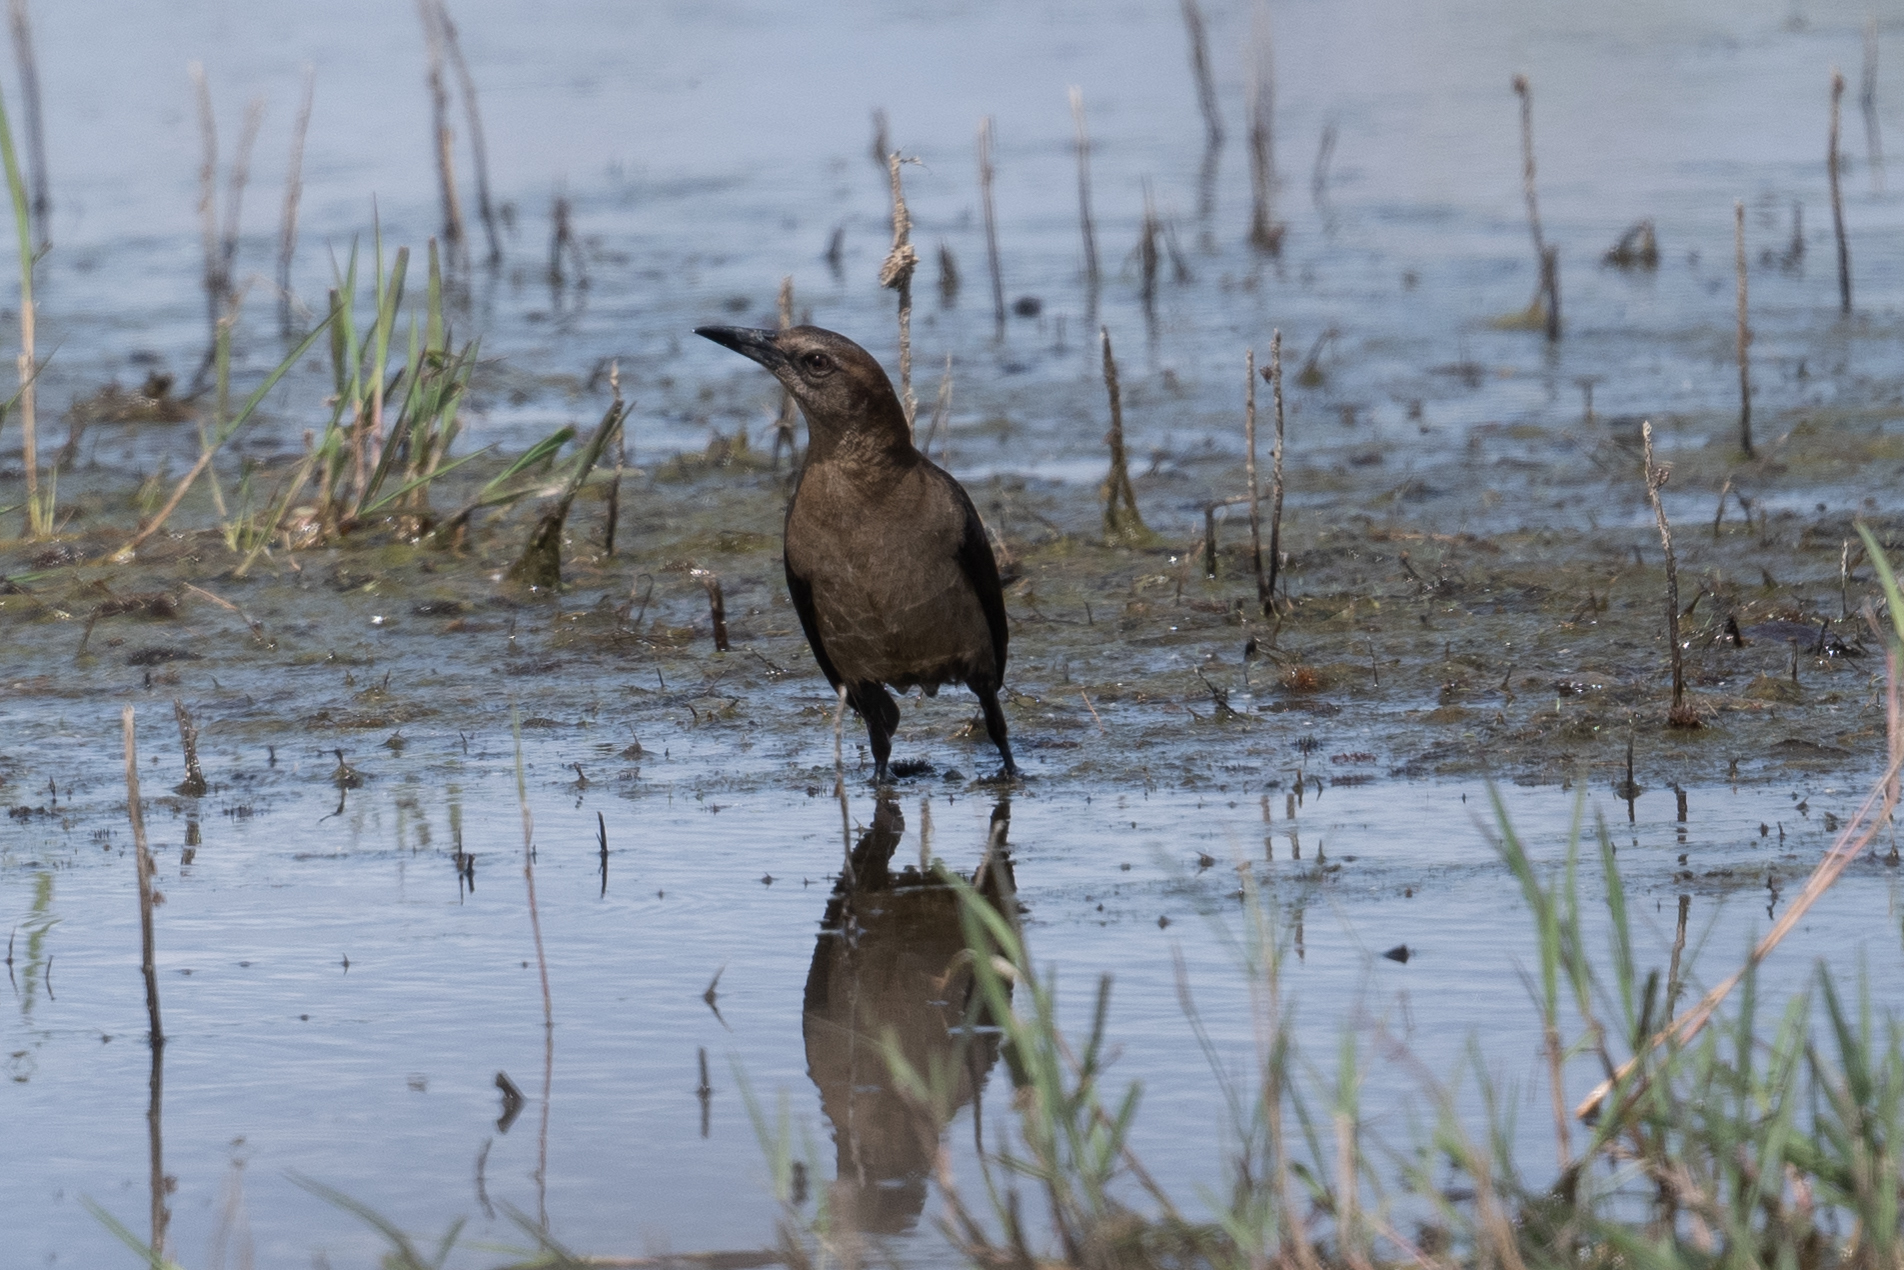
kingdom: Animalia
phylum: Chordata
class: Aves
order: Passeriformes
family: Icteridae
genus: Quiscalus
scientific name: Quiscalus mexicanus
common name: Great-tailed grackle
